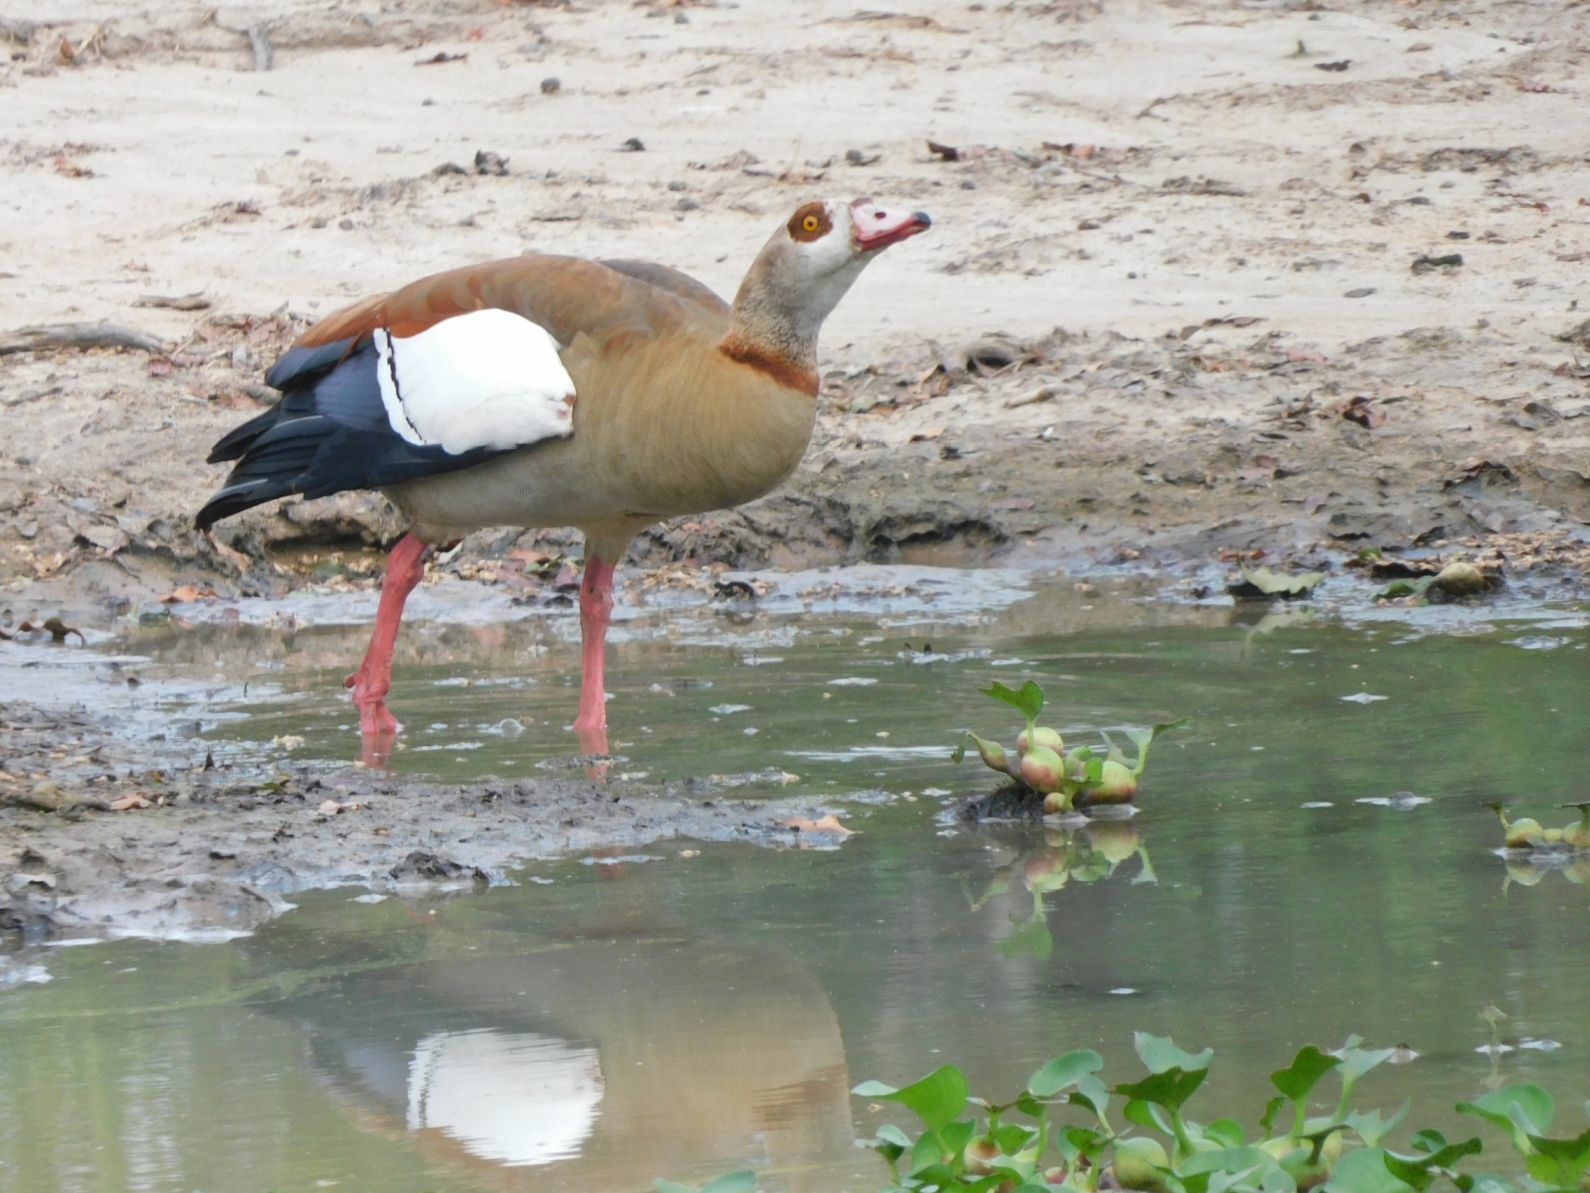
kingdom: Animalia
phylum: Chordata
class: Aves
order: Anseriformes
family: Anatidae
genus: Alopochen
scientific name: Alopochen aegyptiaca
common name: Egyptian goose
